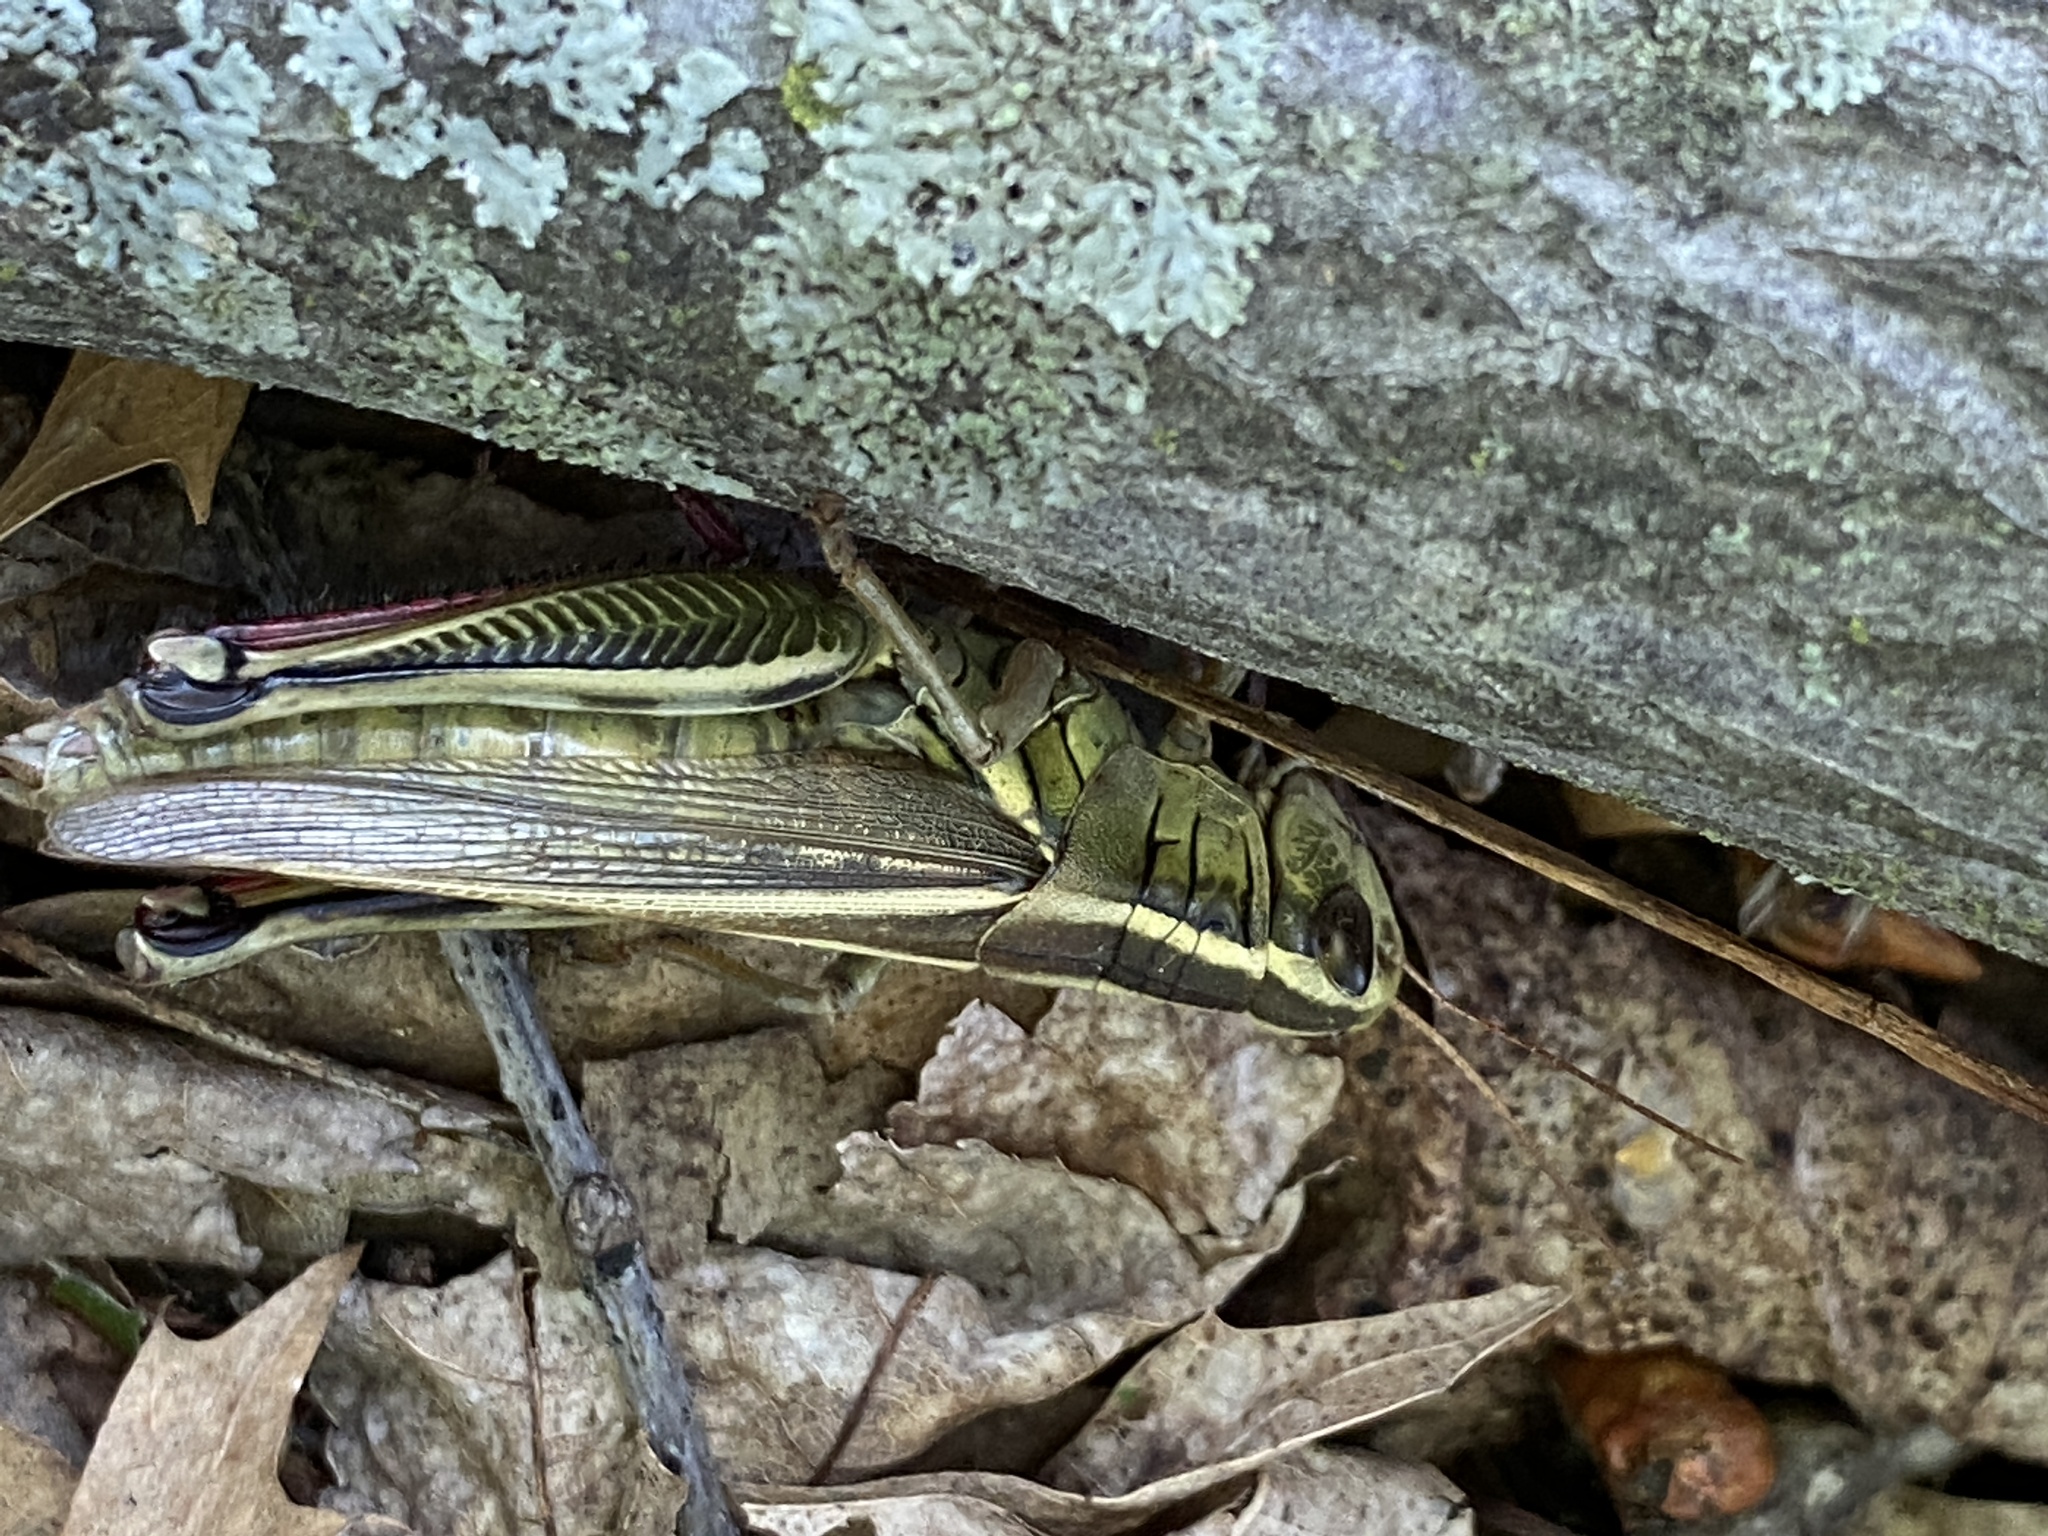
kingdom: Animalia
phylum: Arthropoda
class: Insecta
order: Orthoptera
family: Acrididae
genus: Melanoplus
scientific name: Melanoplus bivittatus
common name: Two-striped grasshopper
